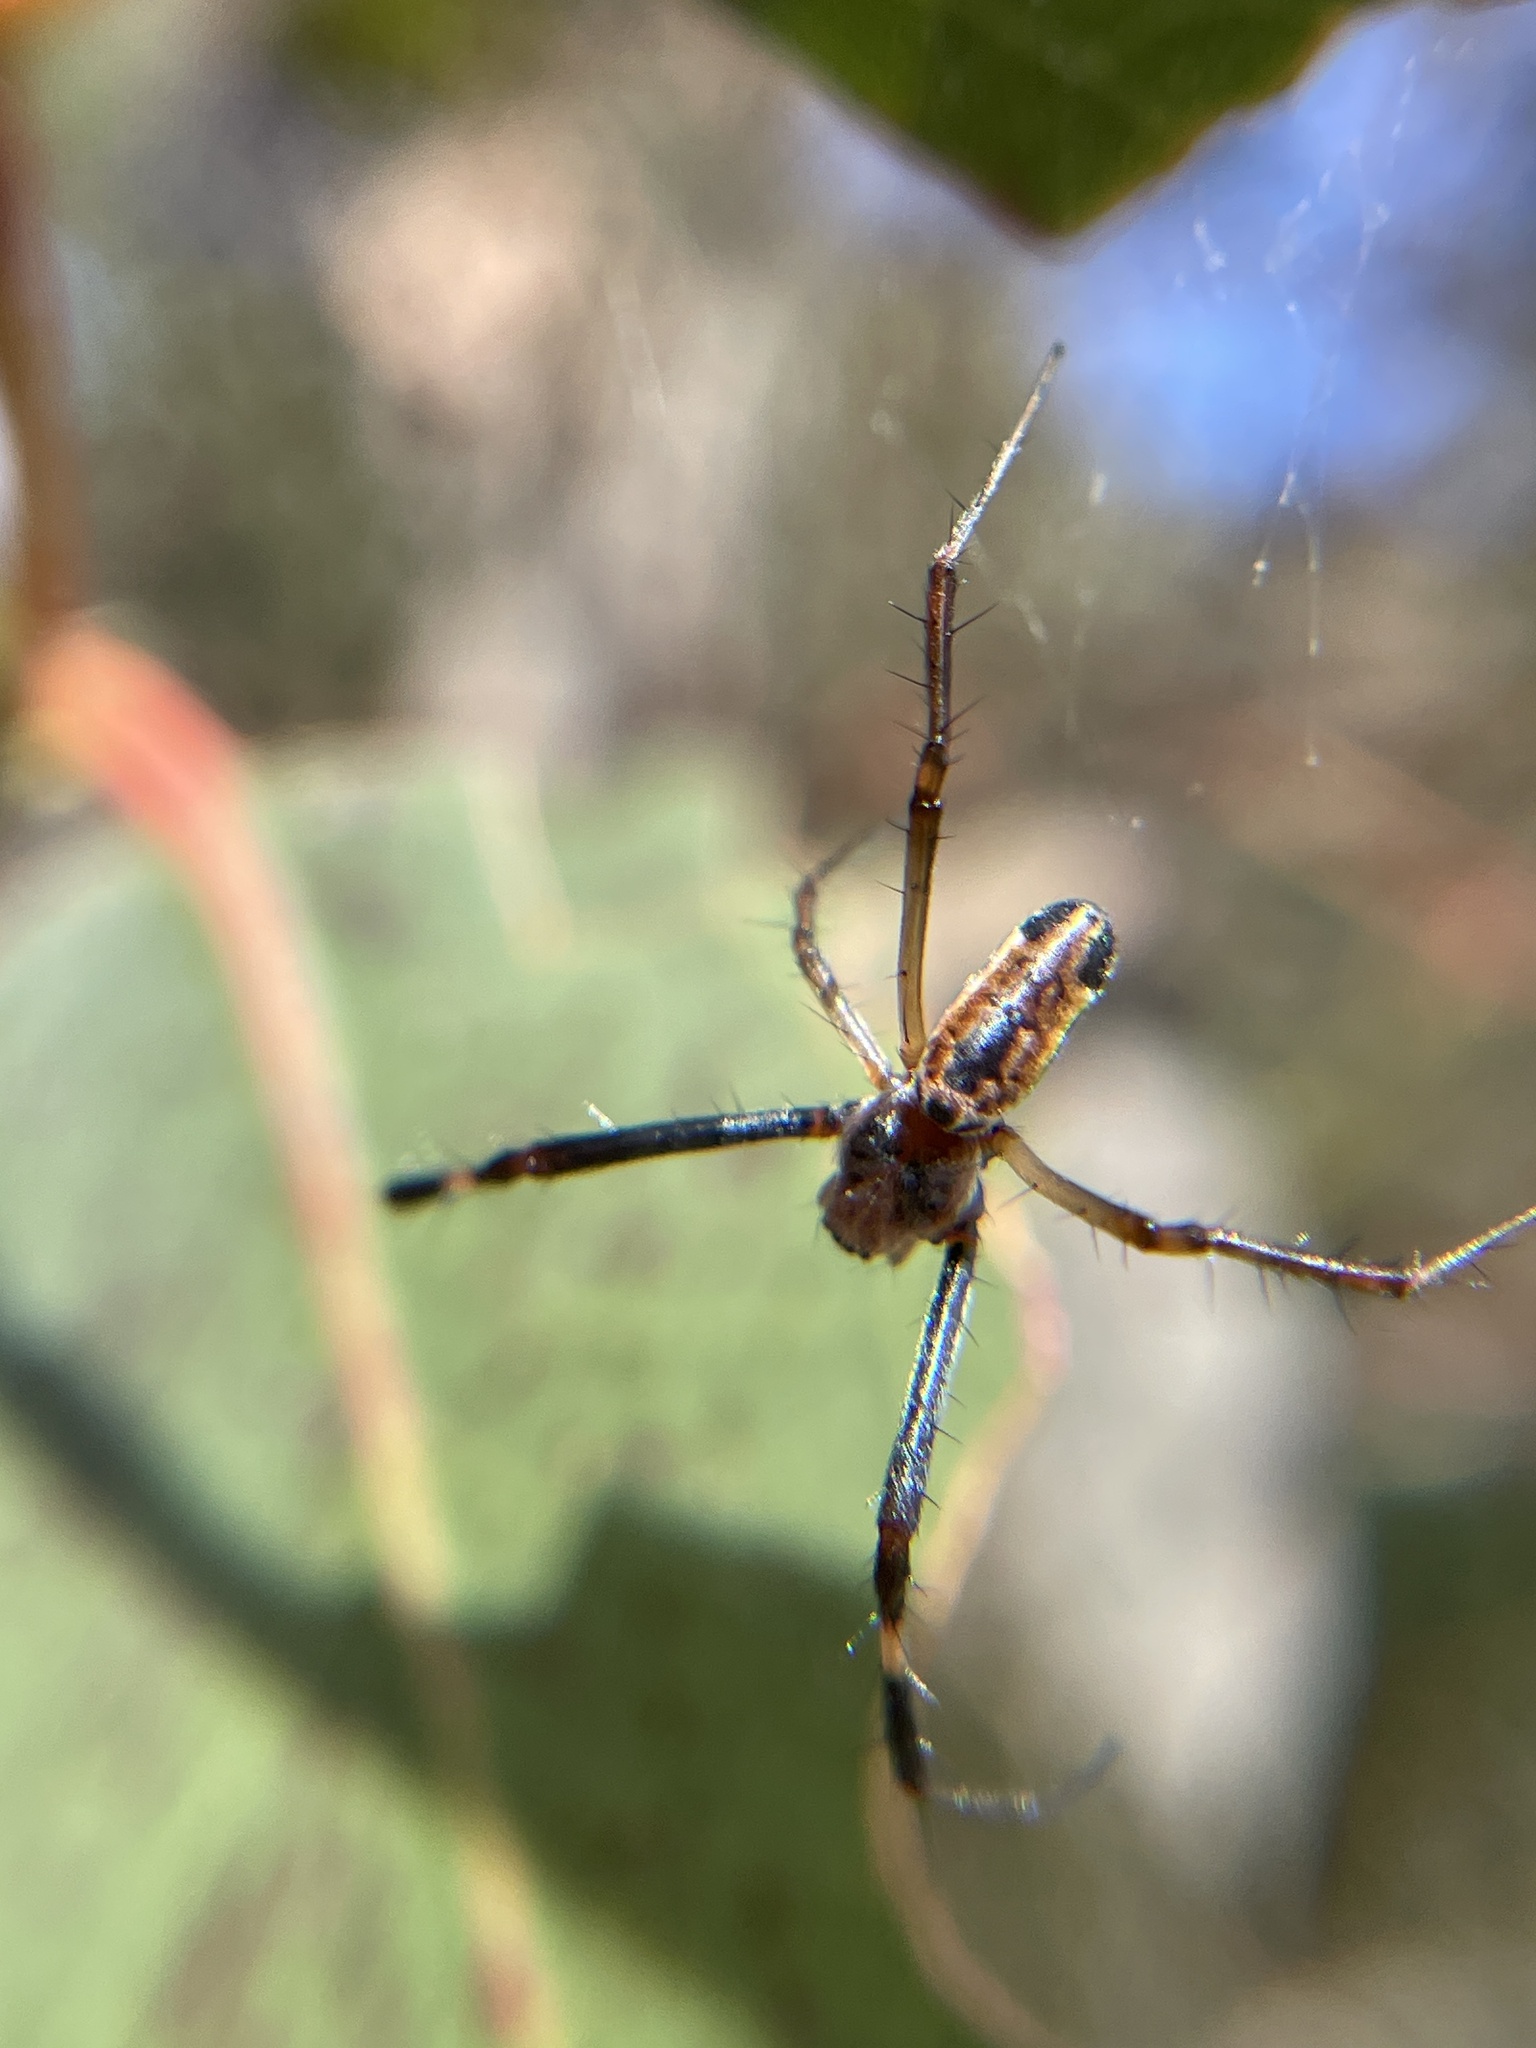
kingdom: Animalia
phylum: Arthropoda
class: Arachnida
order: Araneae
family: Araneidae
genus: Trichonephila
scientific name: Trichonephila edulis
